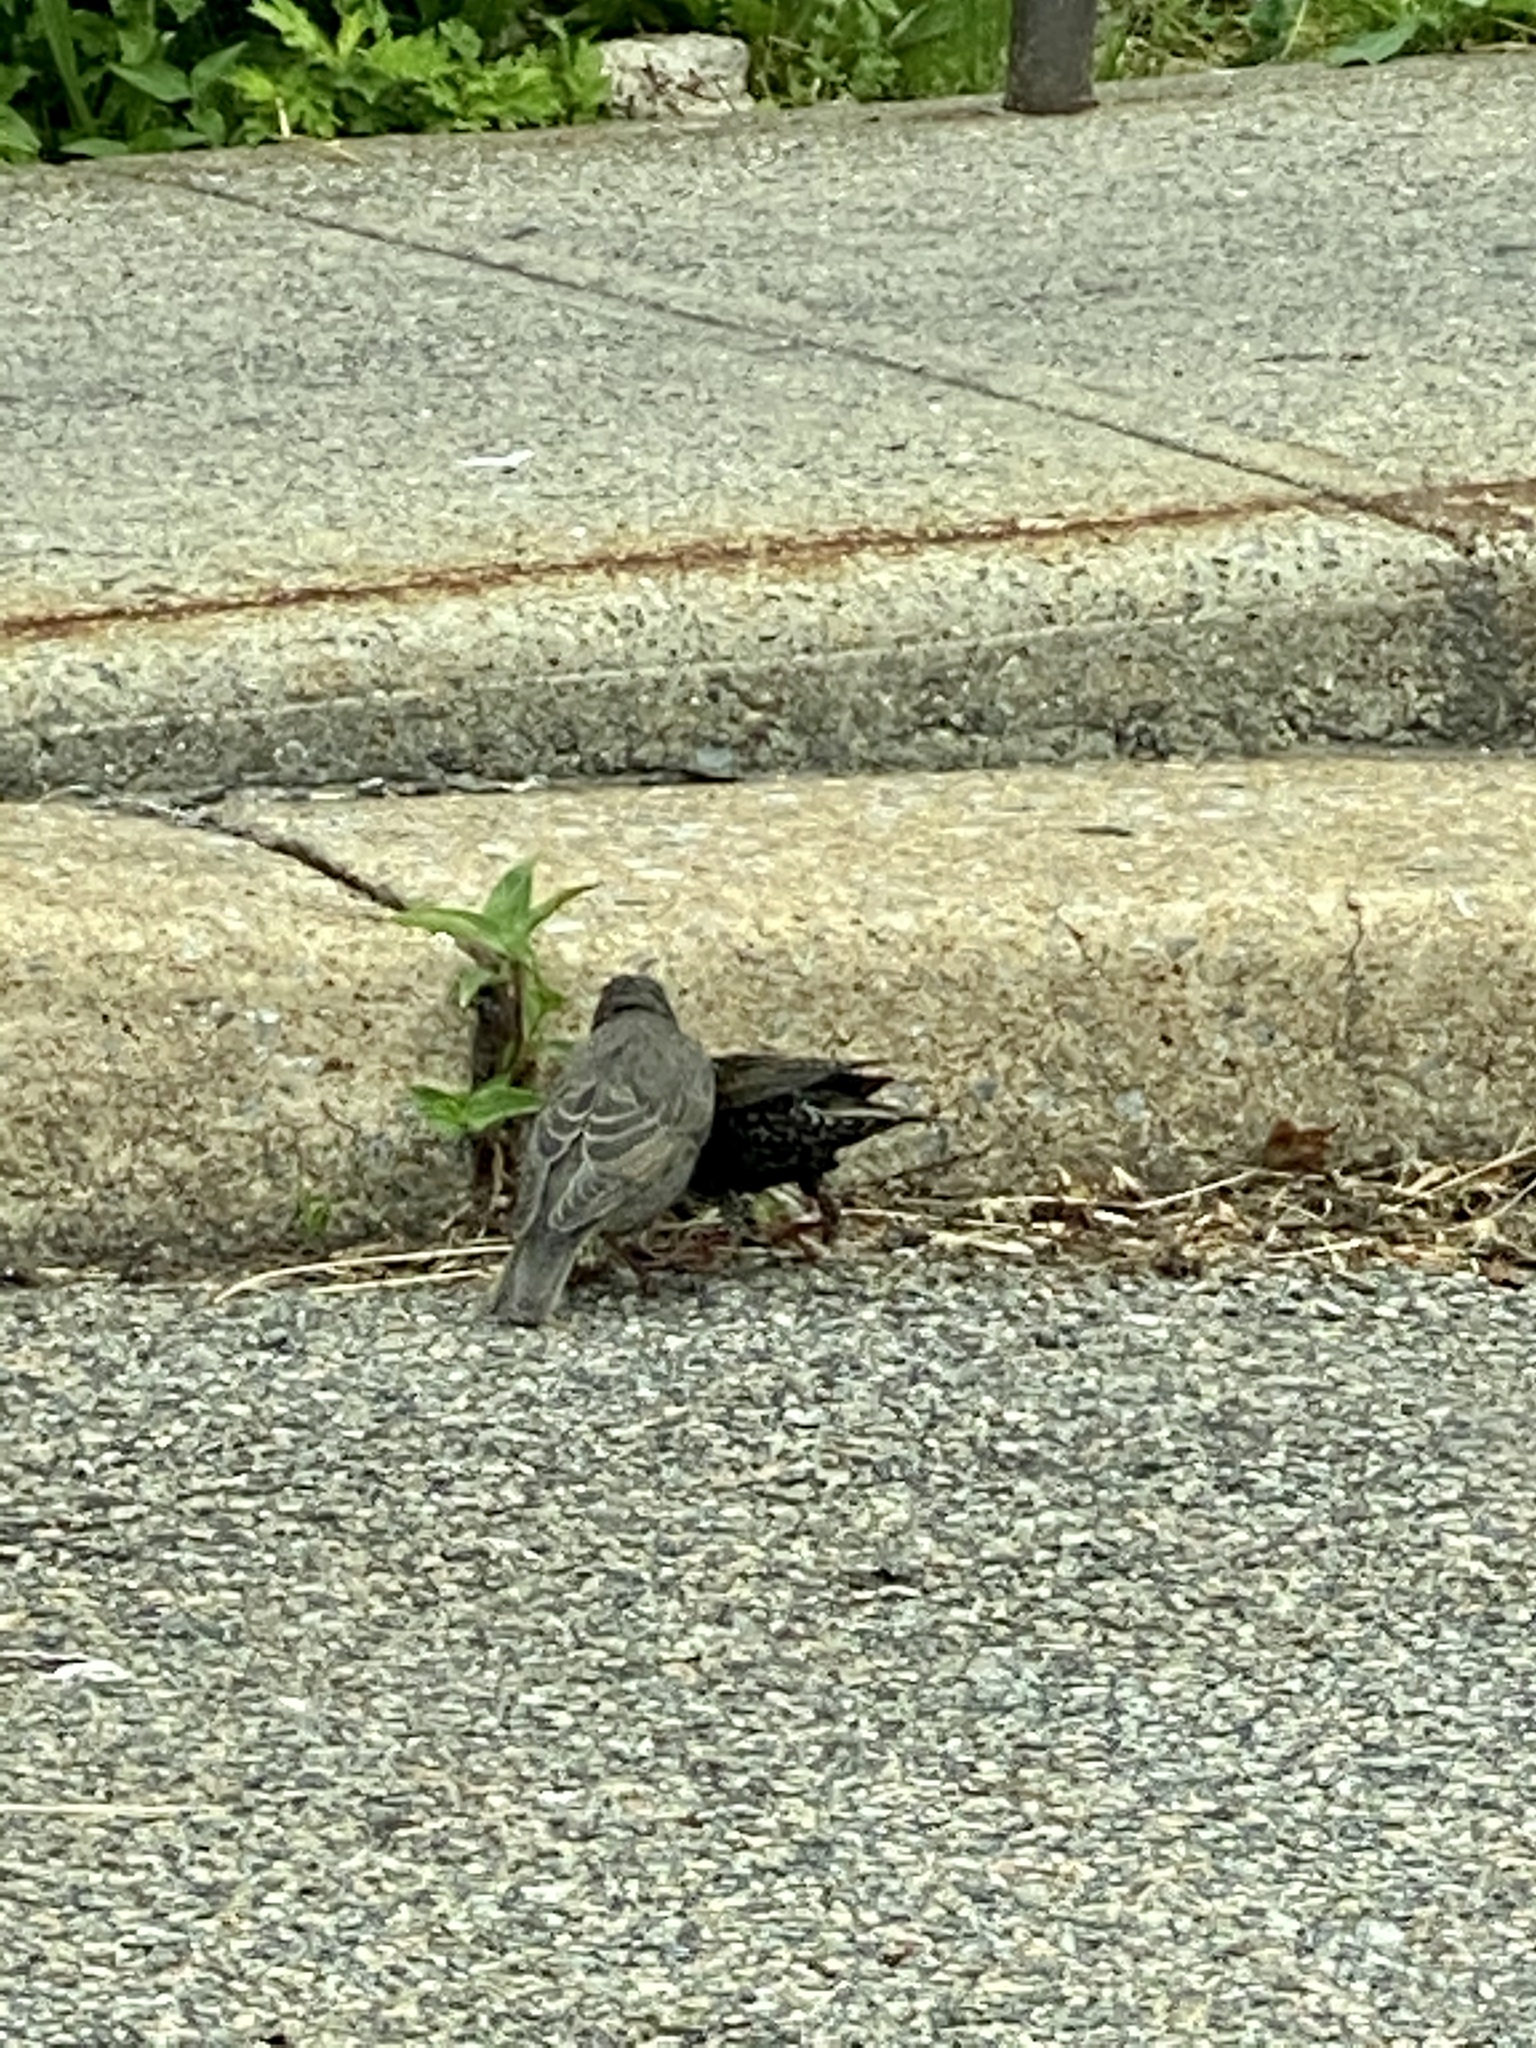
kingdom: Animalia
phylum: Chordata
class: Aves
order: Passeriformes
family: Sturnidae
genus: Sturnus
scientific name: Sturnus vulgaris
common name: Common starling
